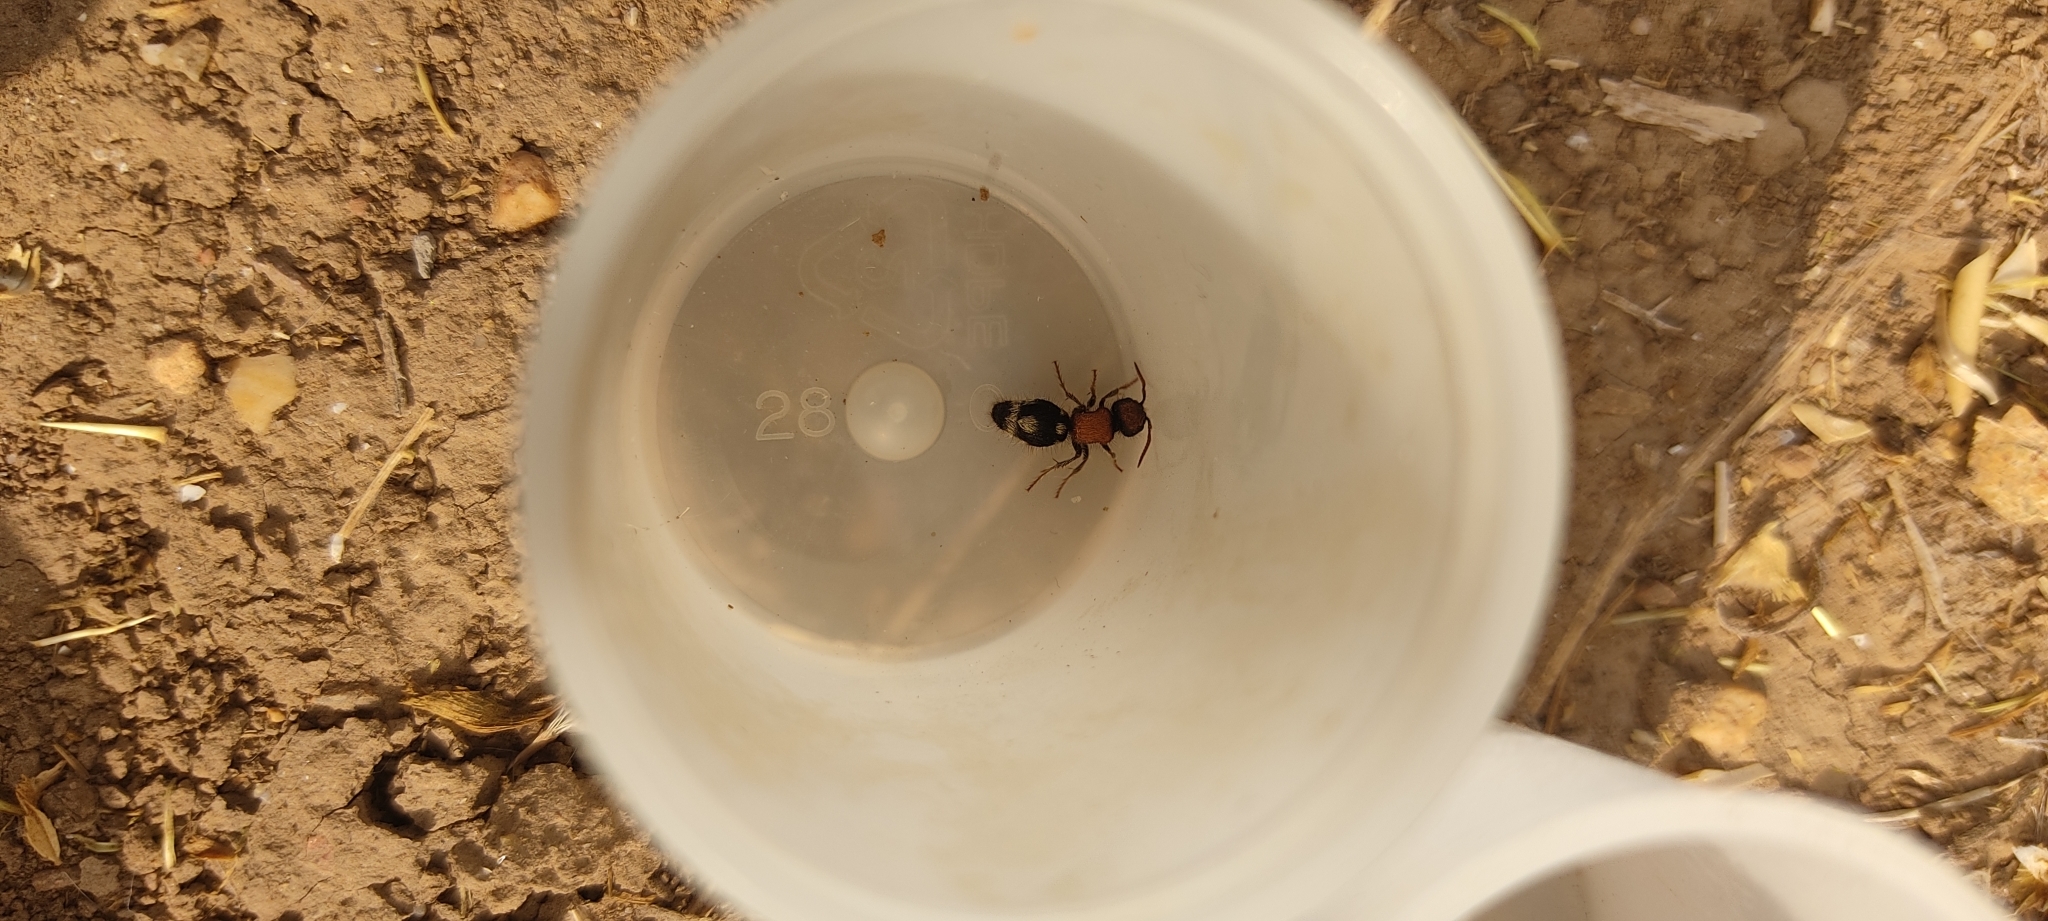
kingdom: Animalia
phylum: Arthropoda
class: Insecta
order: Hymenoptera
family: Mutillidae
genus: Ronisia
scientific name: Ronisia brutia
